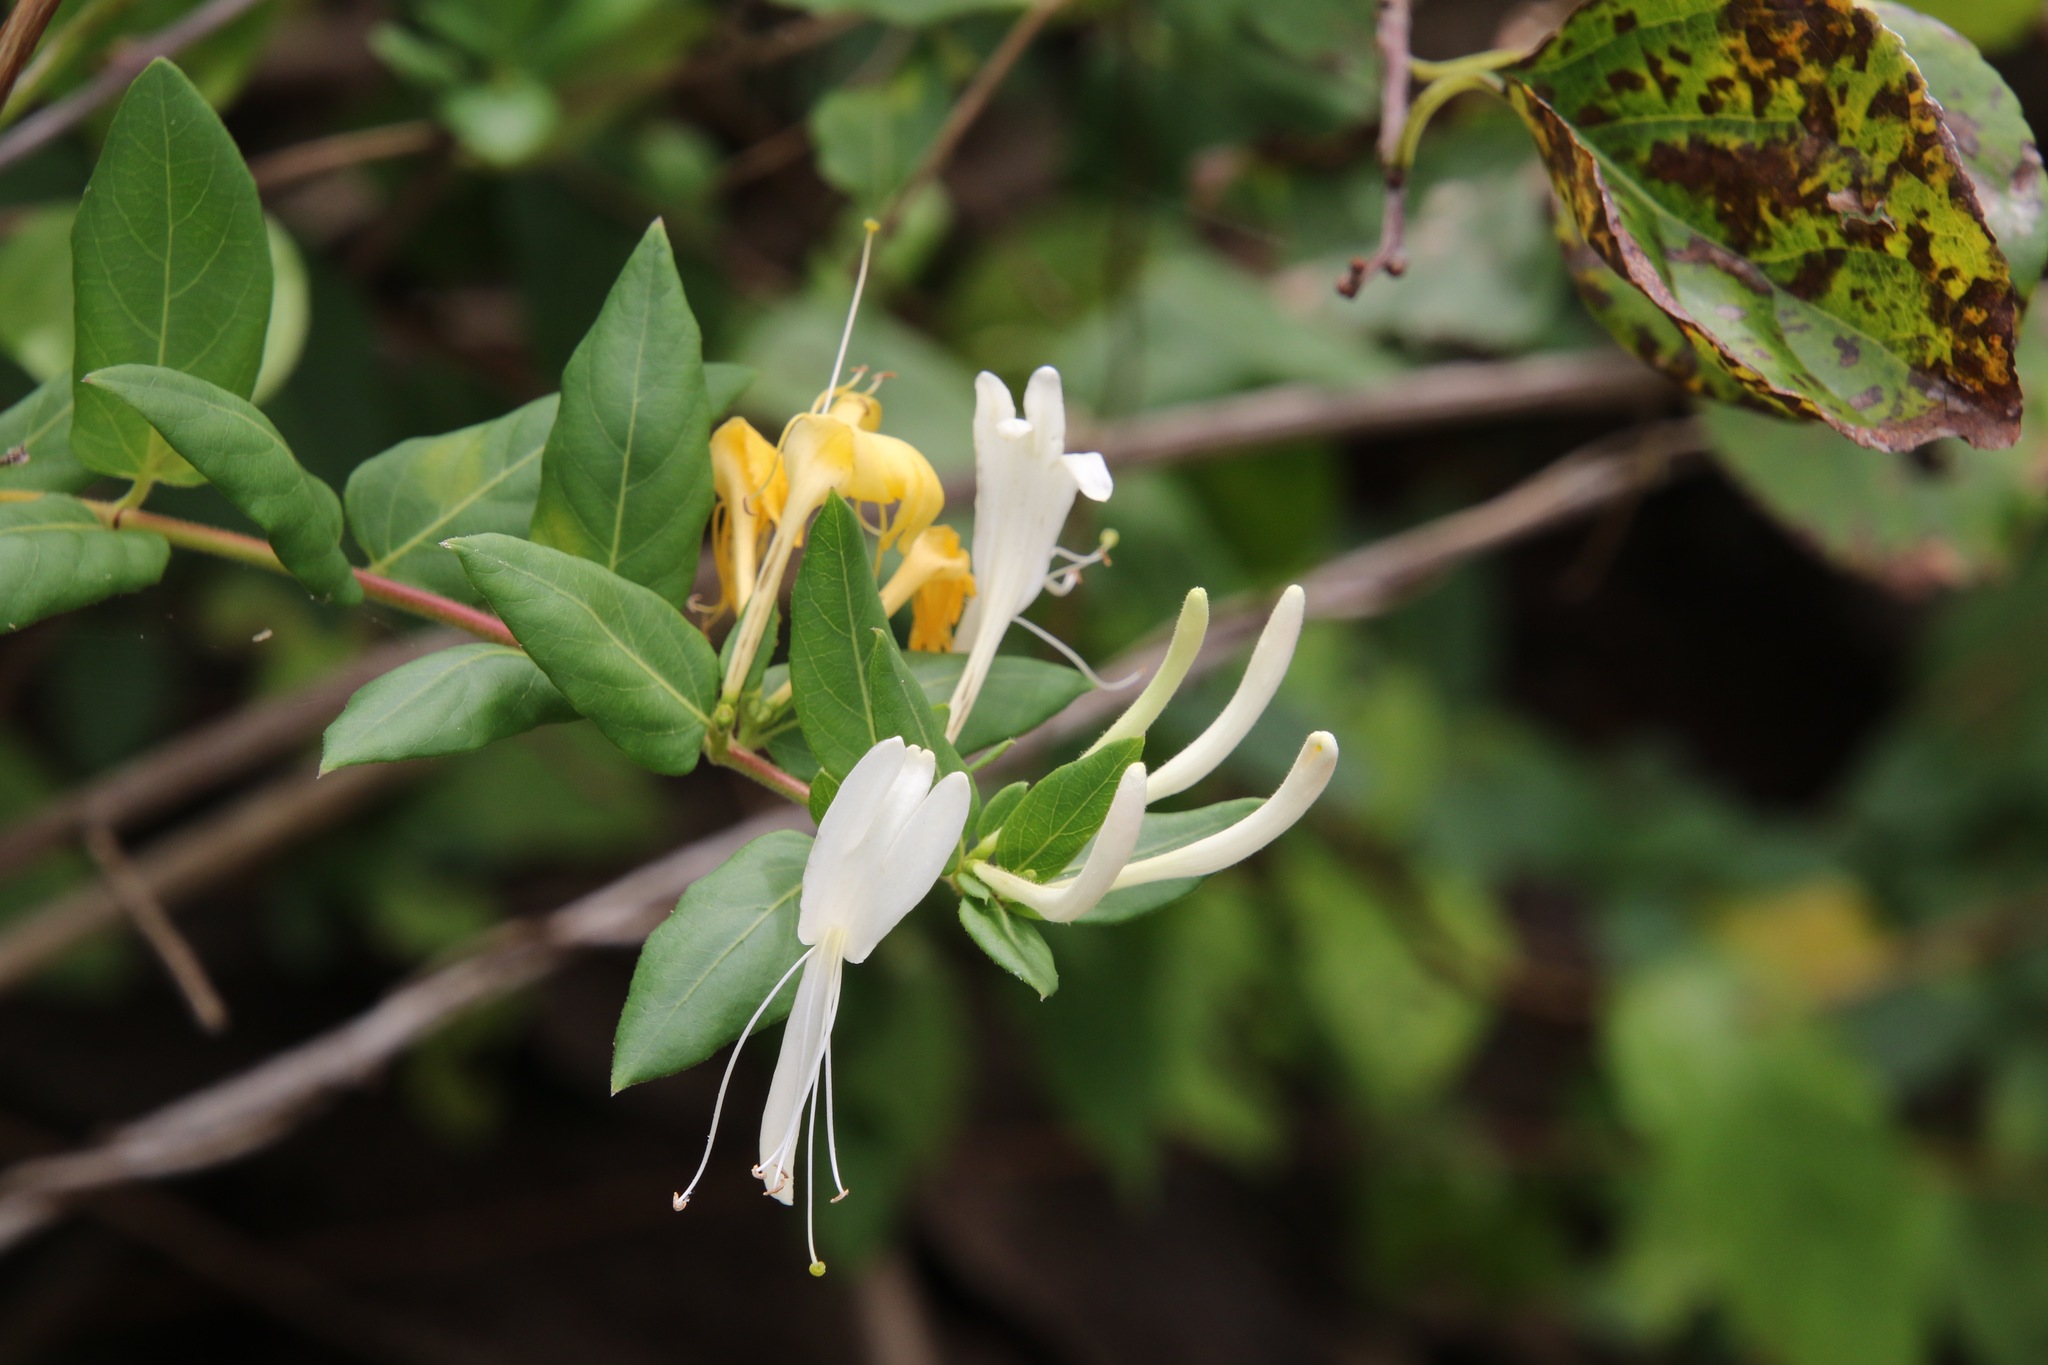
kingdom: Plantae
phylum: Tracheophyta
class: Magnoliopsida
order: Dipsacales
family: Caprifoliaceae
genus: Lonicera
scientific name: Lonicera japonica
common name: Japanese honeysuckle
